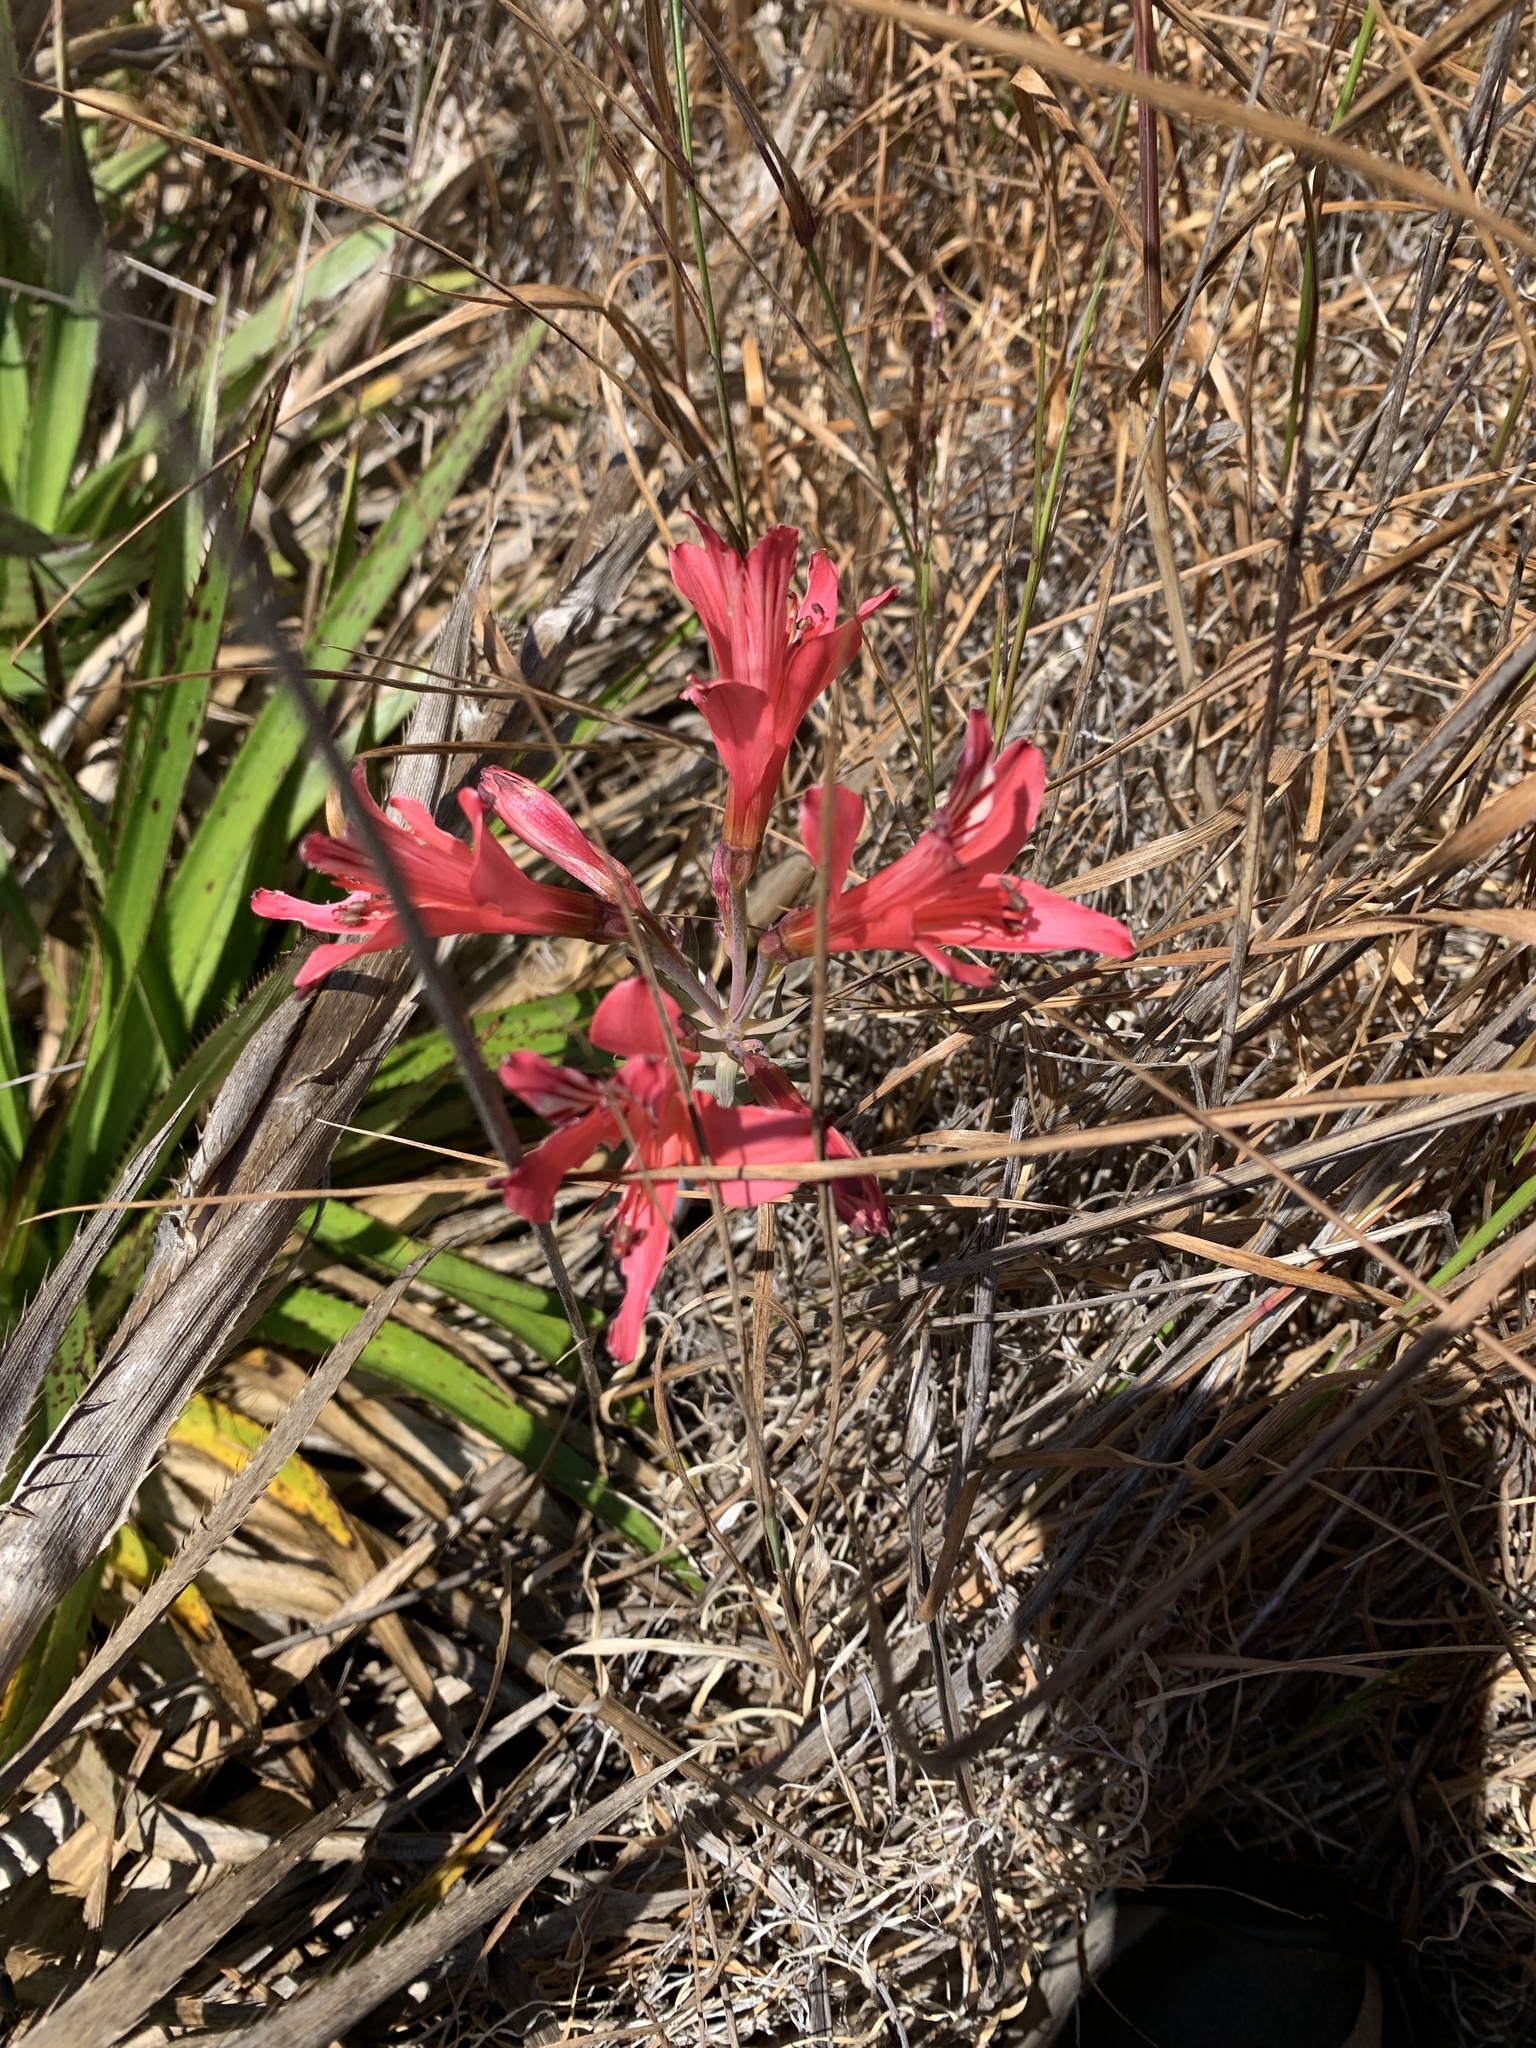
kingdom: Plantae
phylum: Tracheophyta
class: Liliopsida
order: Liliales
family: Alstroemeriaceae
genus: Alstroemeria
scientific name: Alstroemeria ligtu
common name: St. martin's-flower
